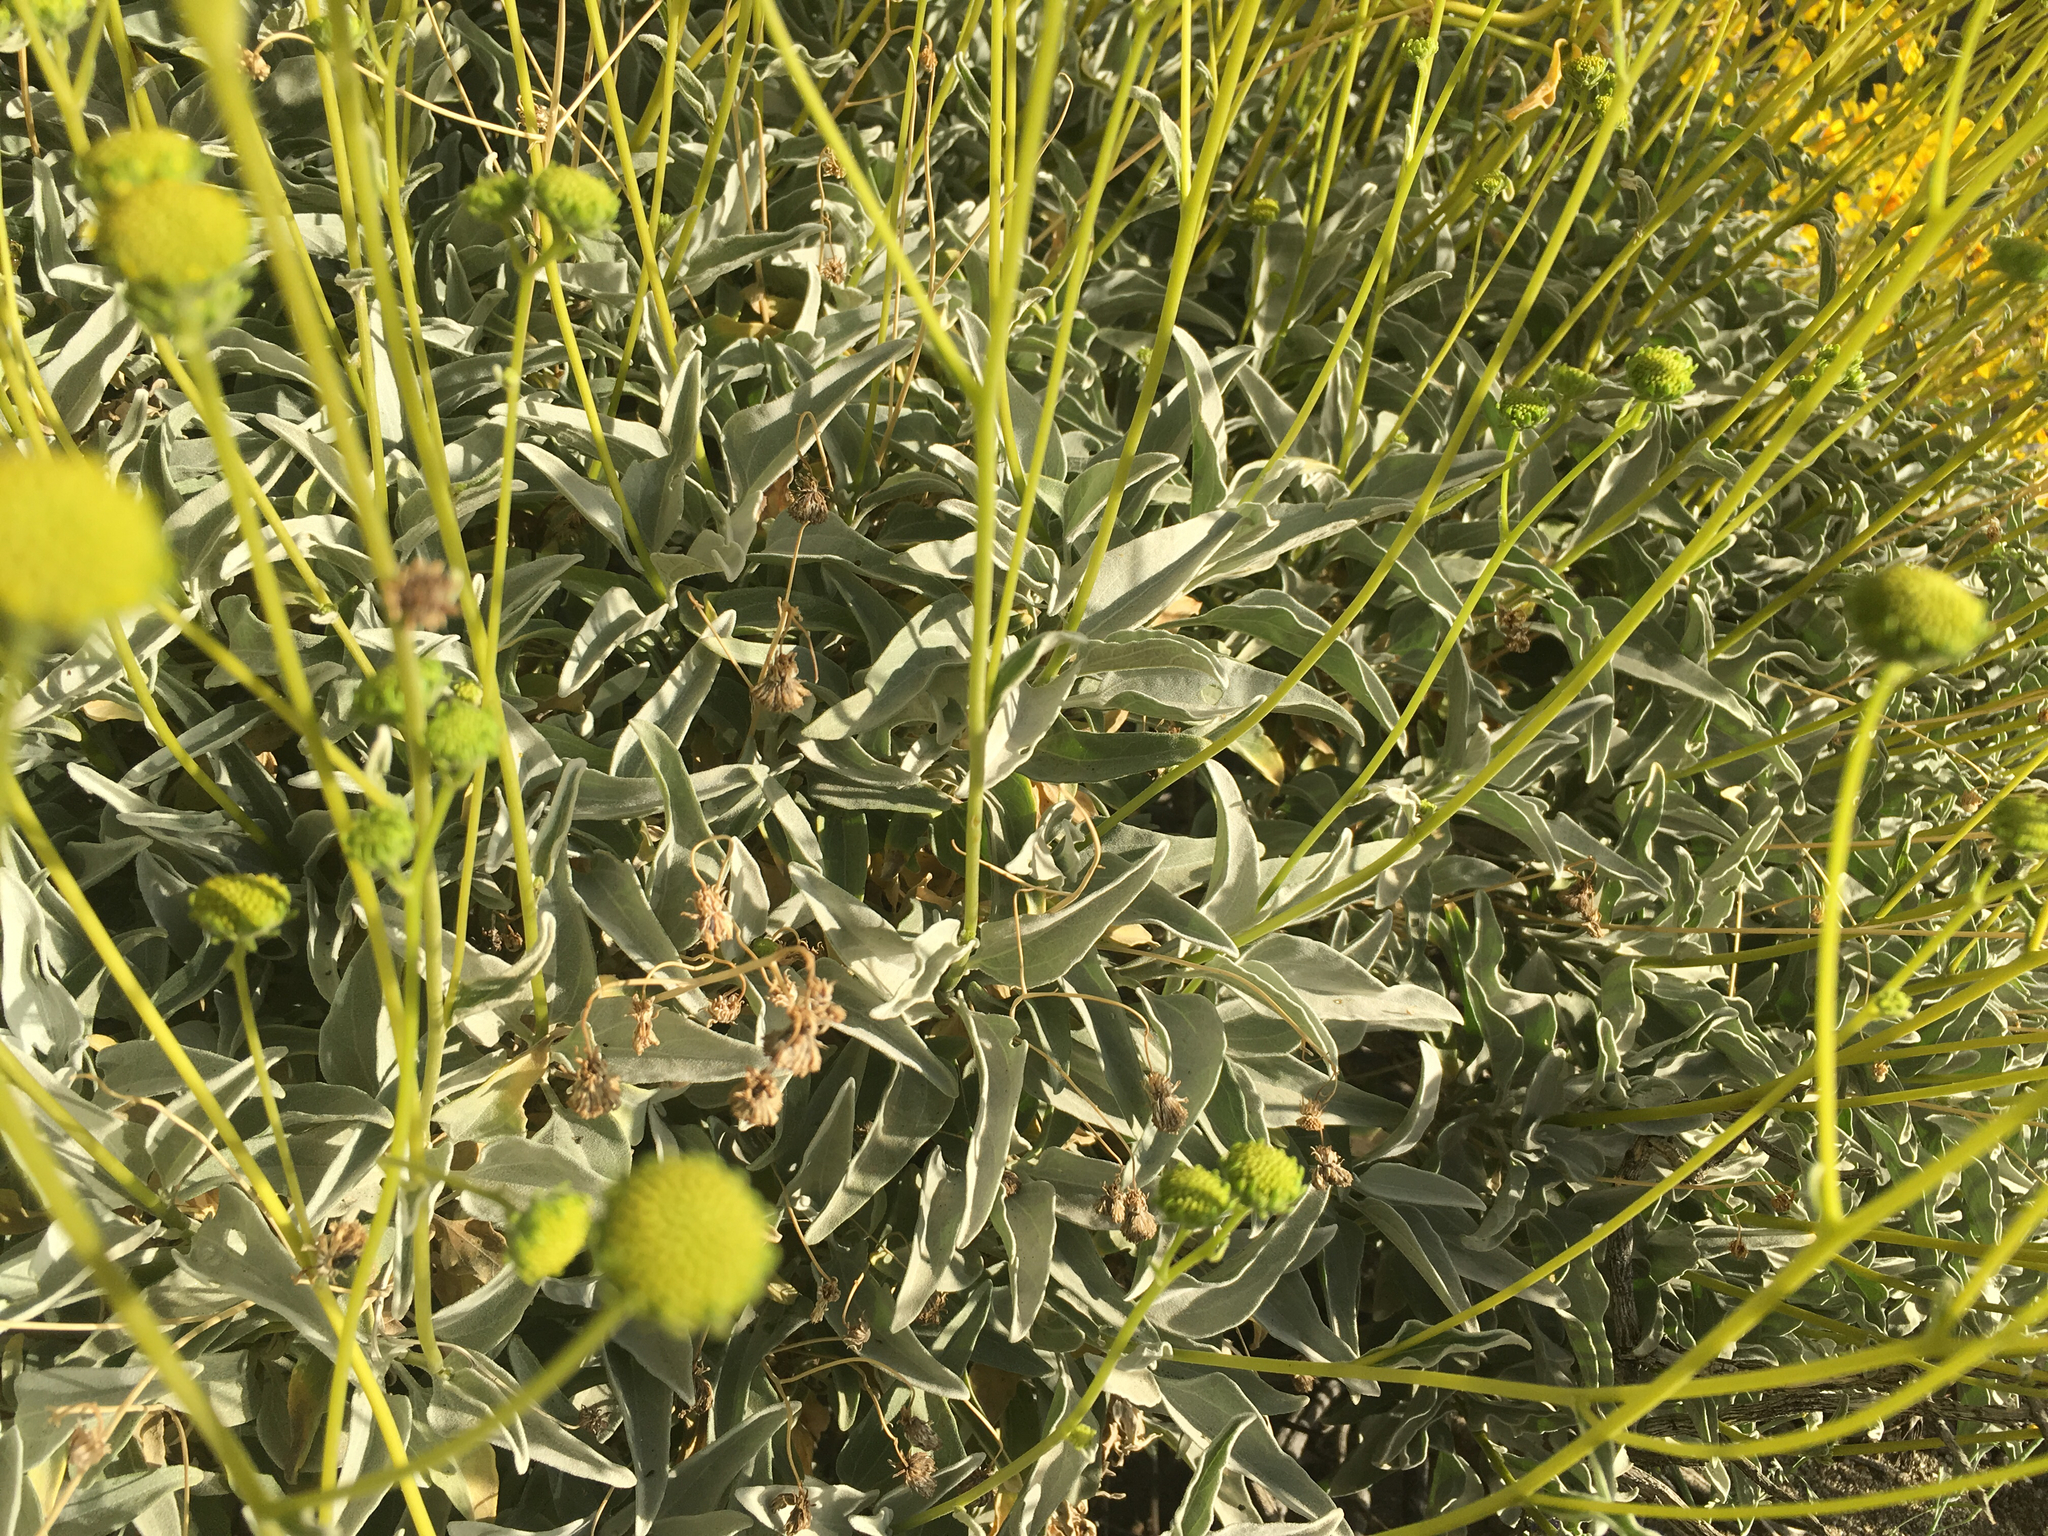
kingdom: Plantae
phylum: Tracheophyta
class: Magnoliopsida
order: Asterales
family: Asteraceae
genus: Encelia
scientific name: Encelia farinosa
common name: Brittlebush
